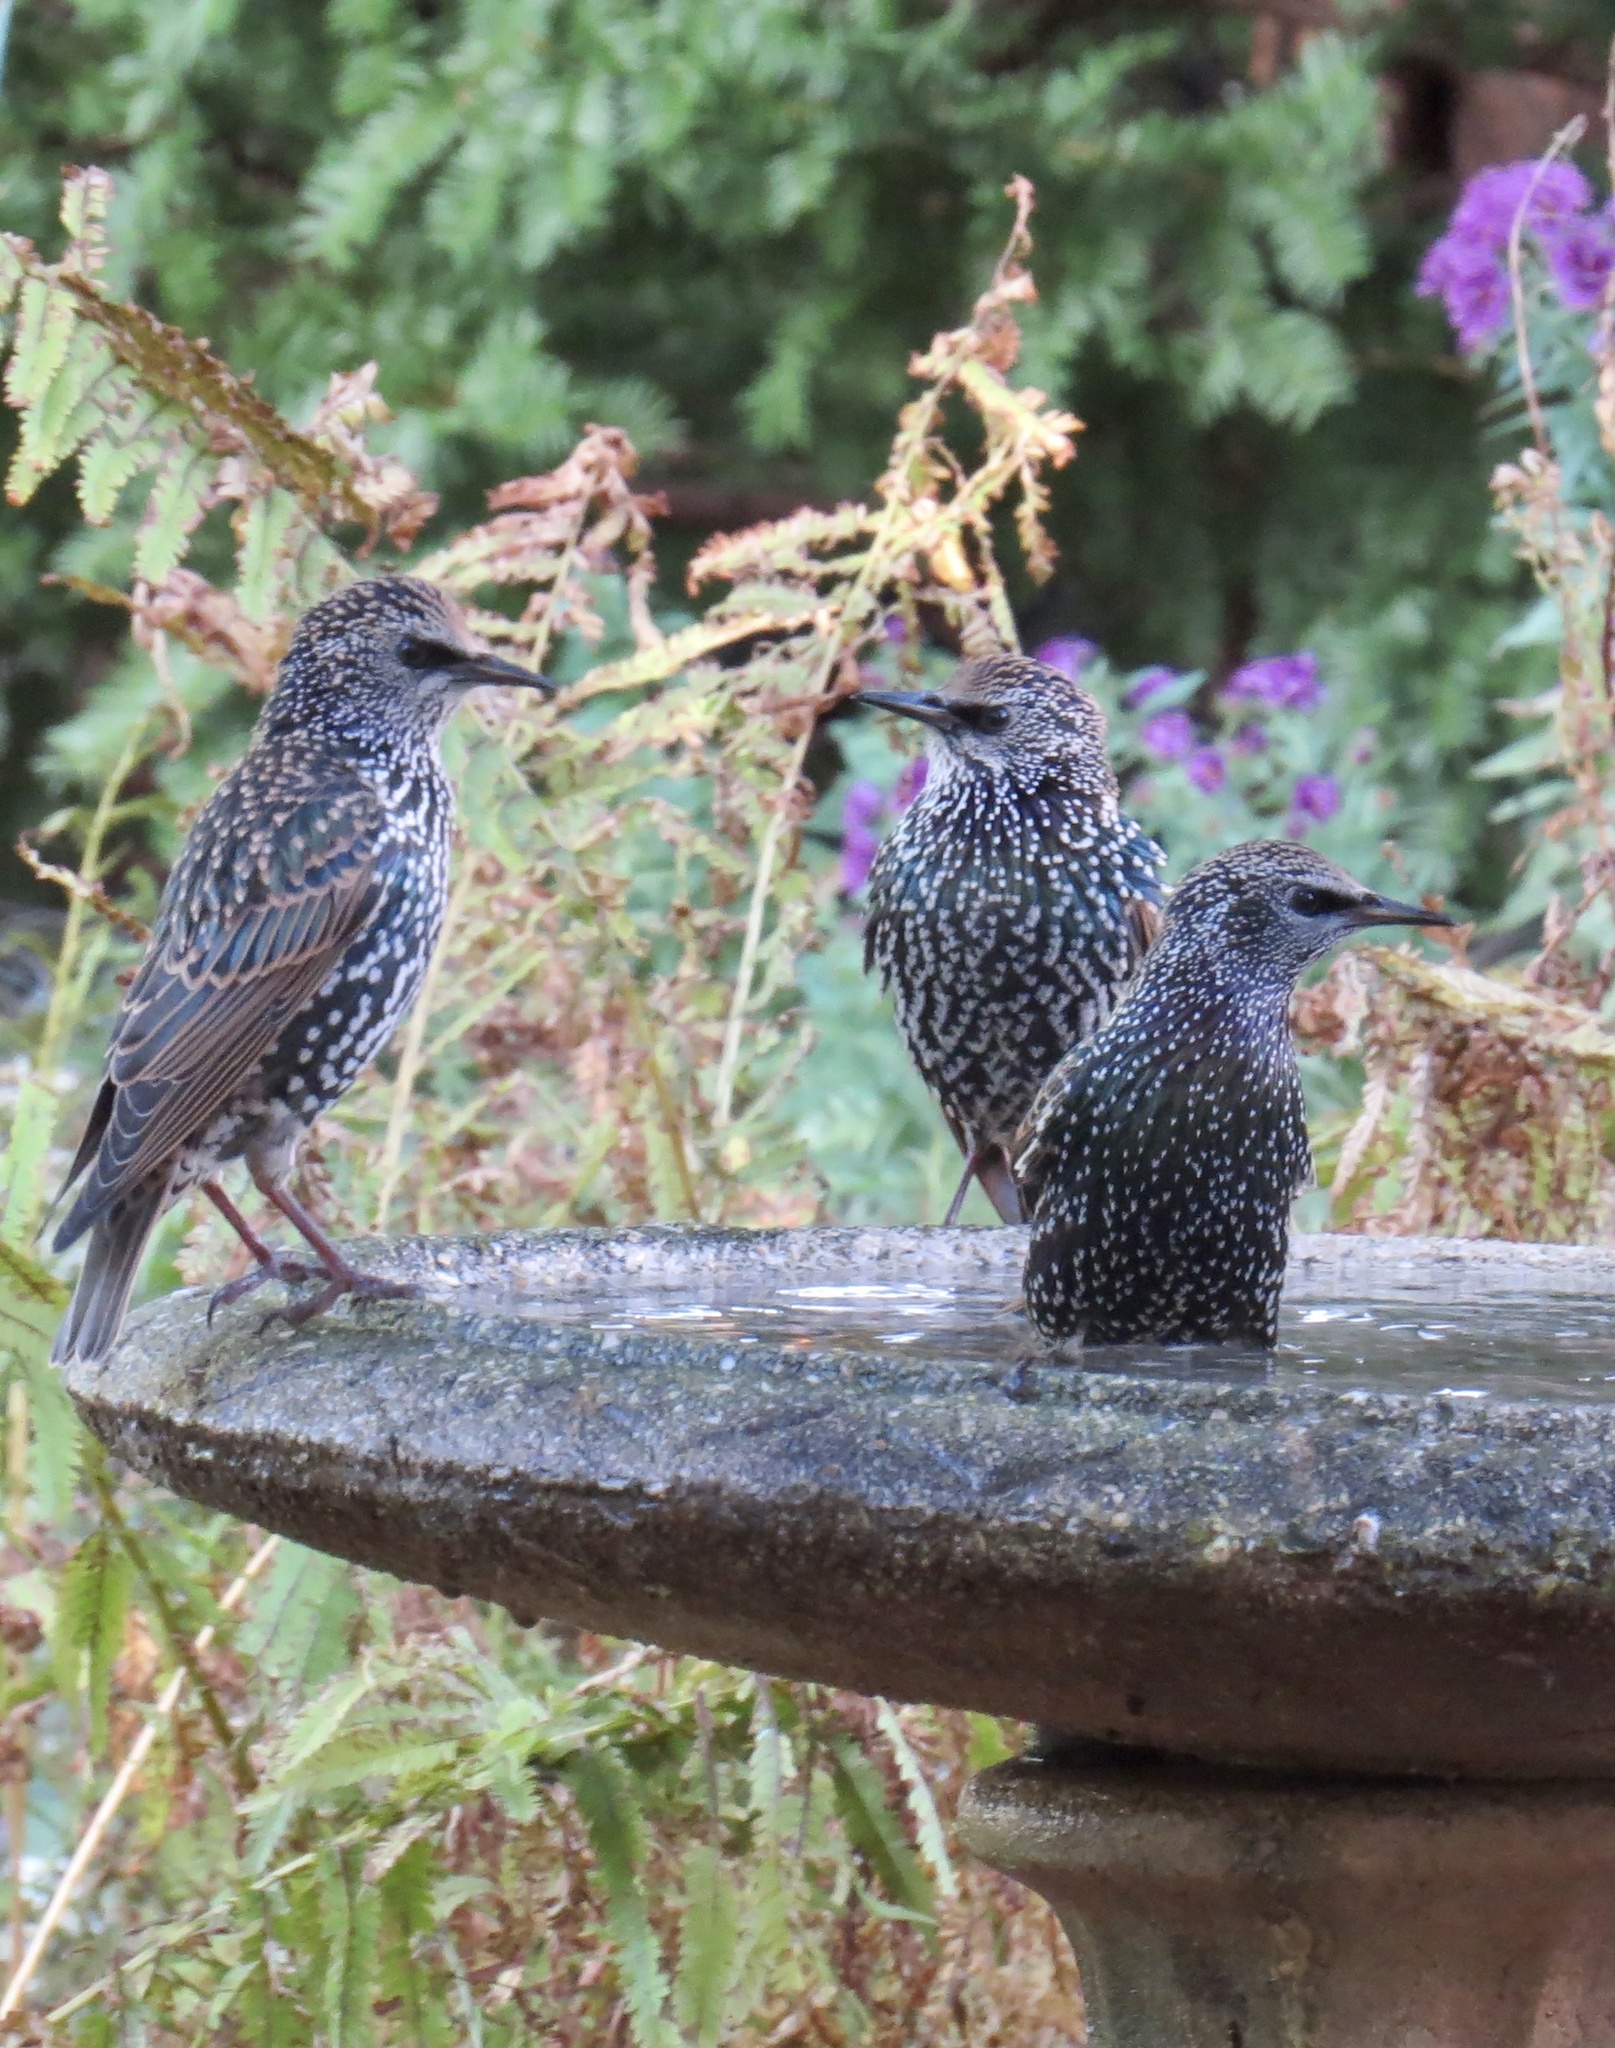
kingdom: Animalia
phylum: Chordata
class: Aves
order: Passeriformes
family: Sturnidae
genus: Sturnus
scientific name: Sturnus vulgaris
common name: Common starling
